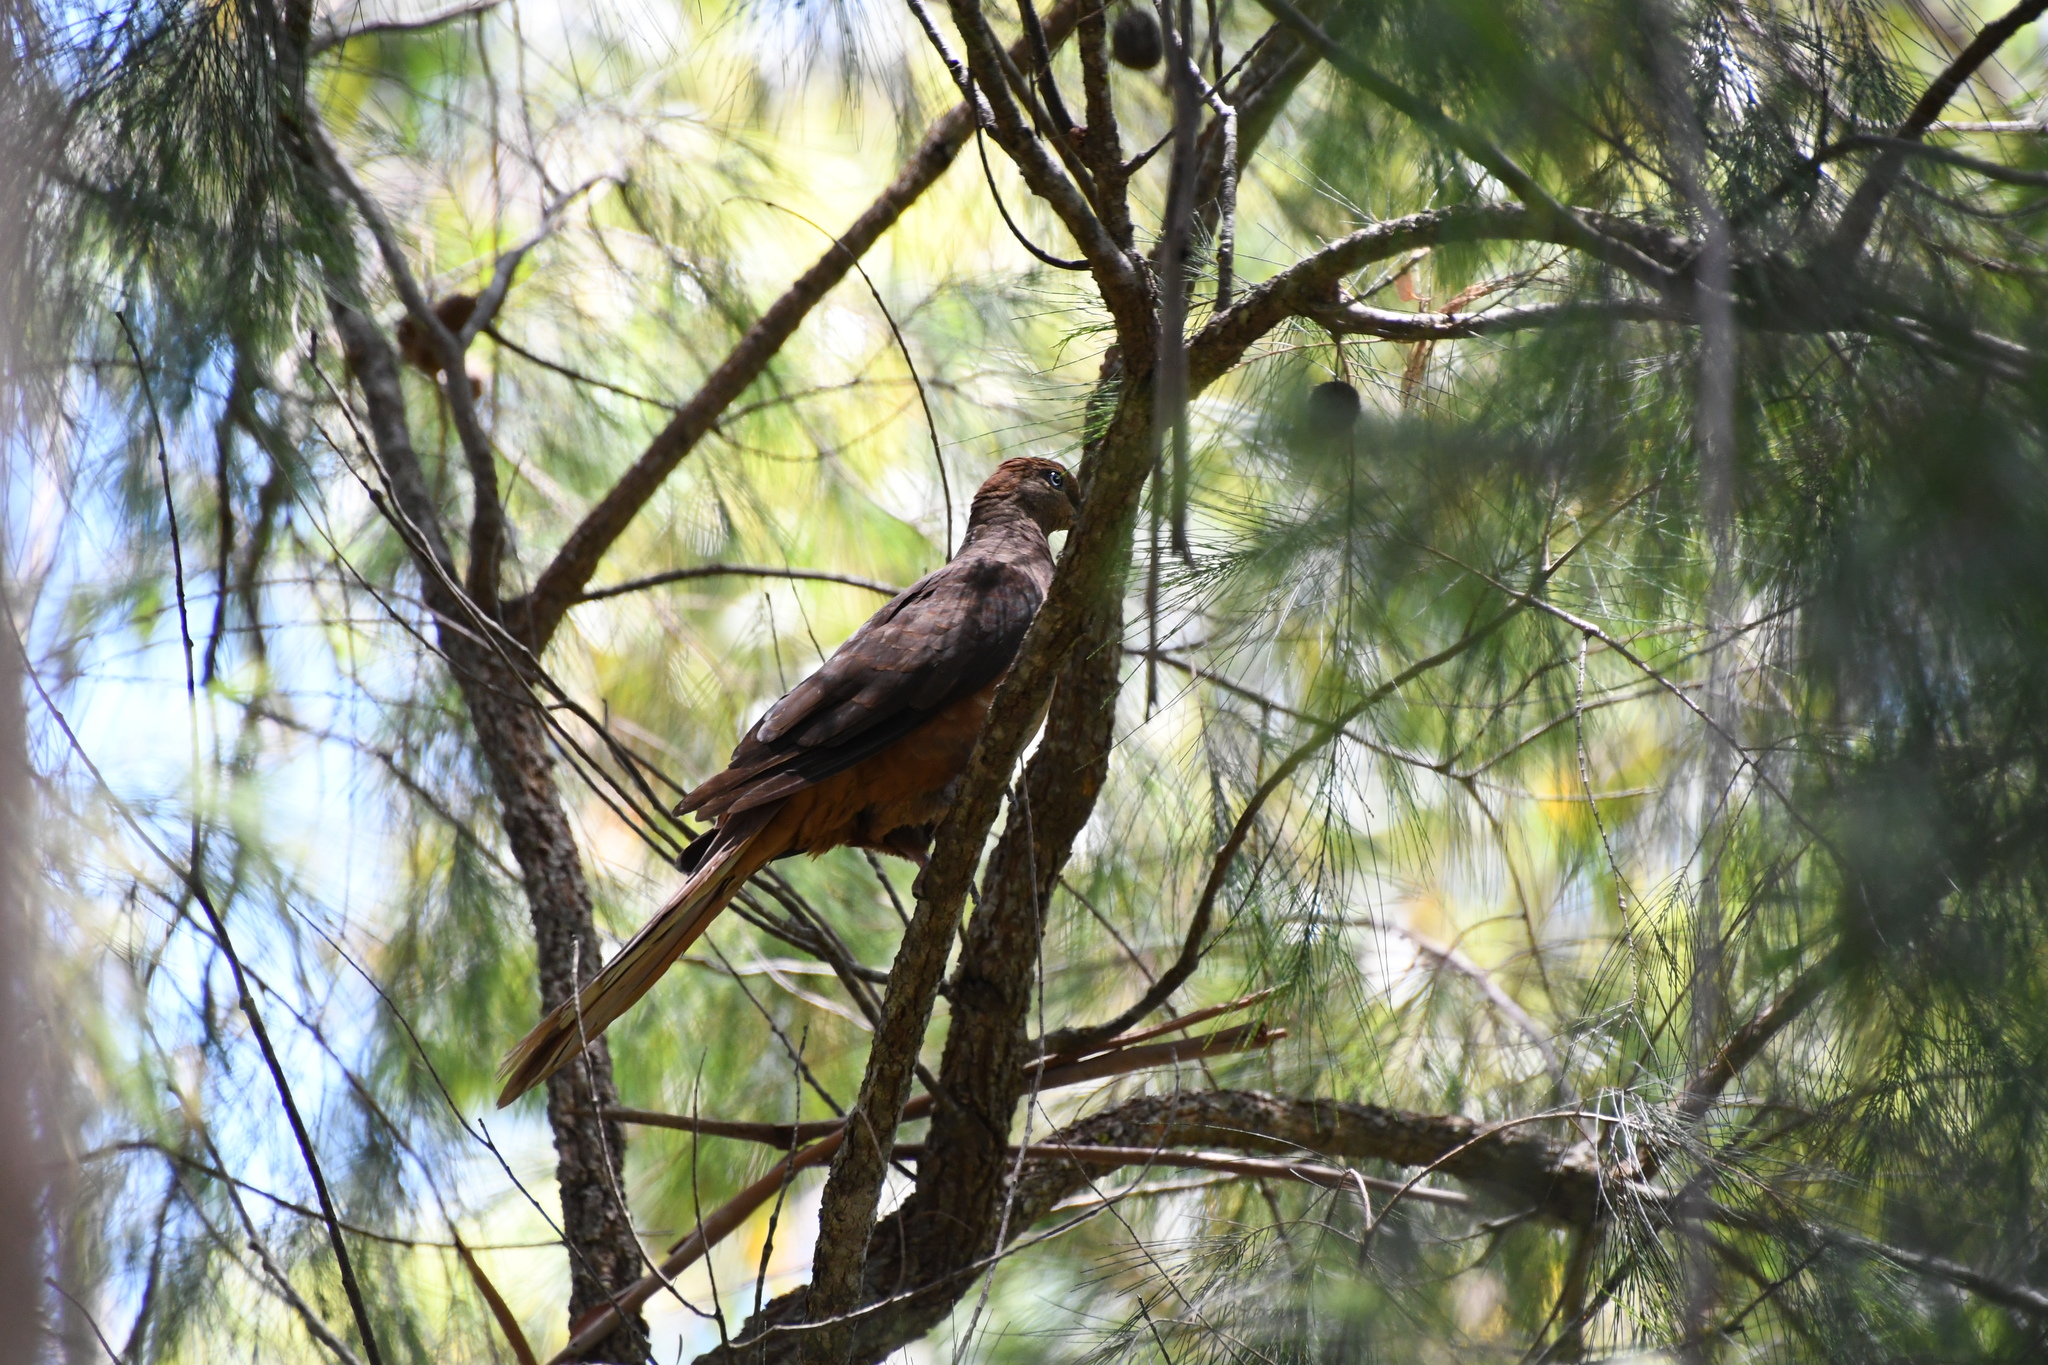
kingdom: Animalia
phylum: Chordata
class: Aves
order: Columbiformes
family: Columbidae
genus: Macropygia
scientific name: Macropygia phasianella
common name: Brown cuckoo-dove
